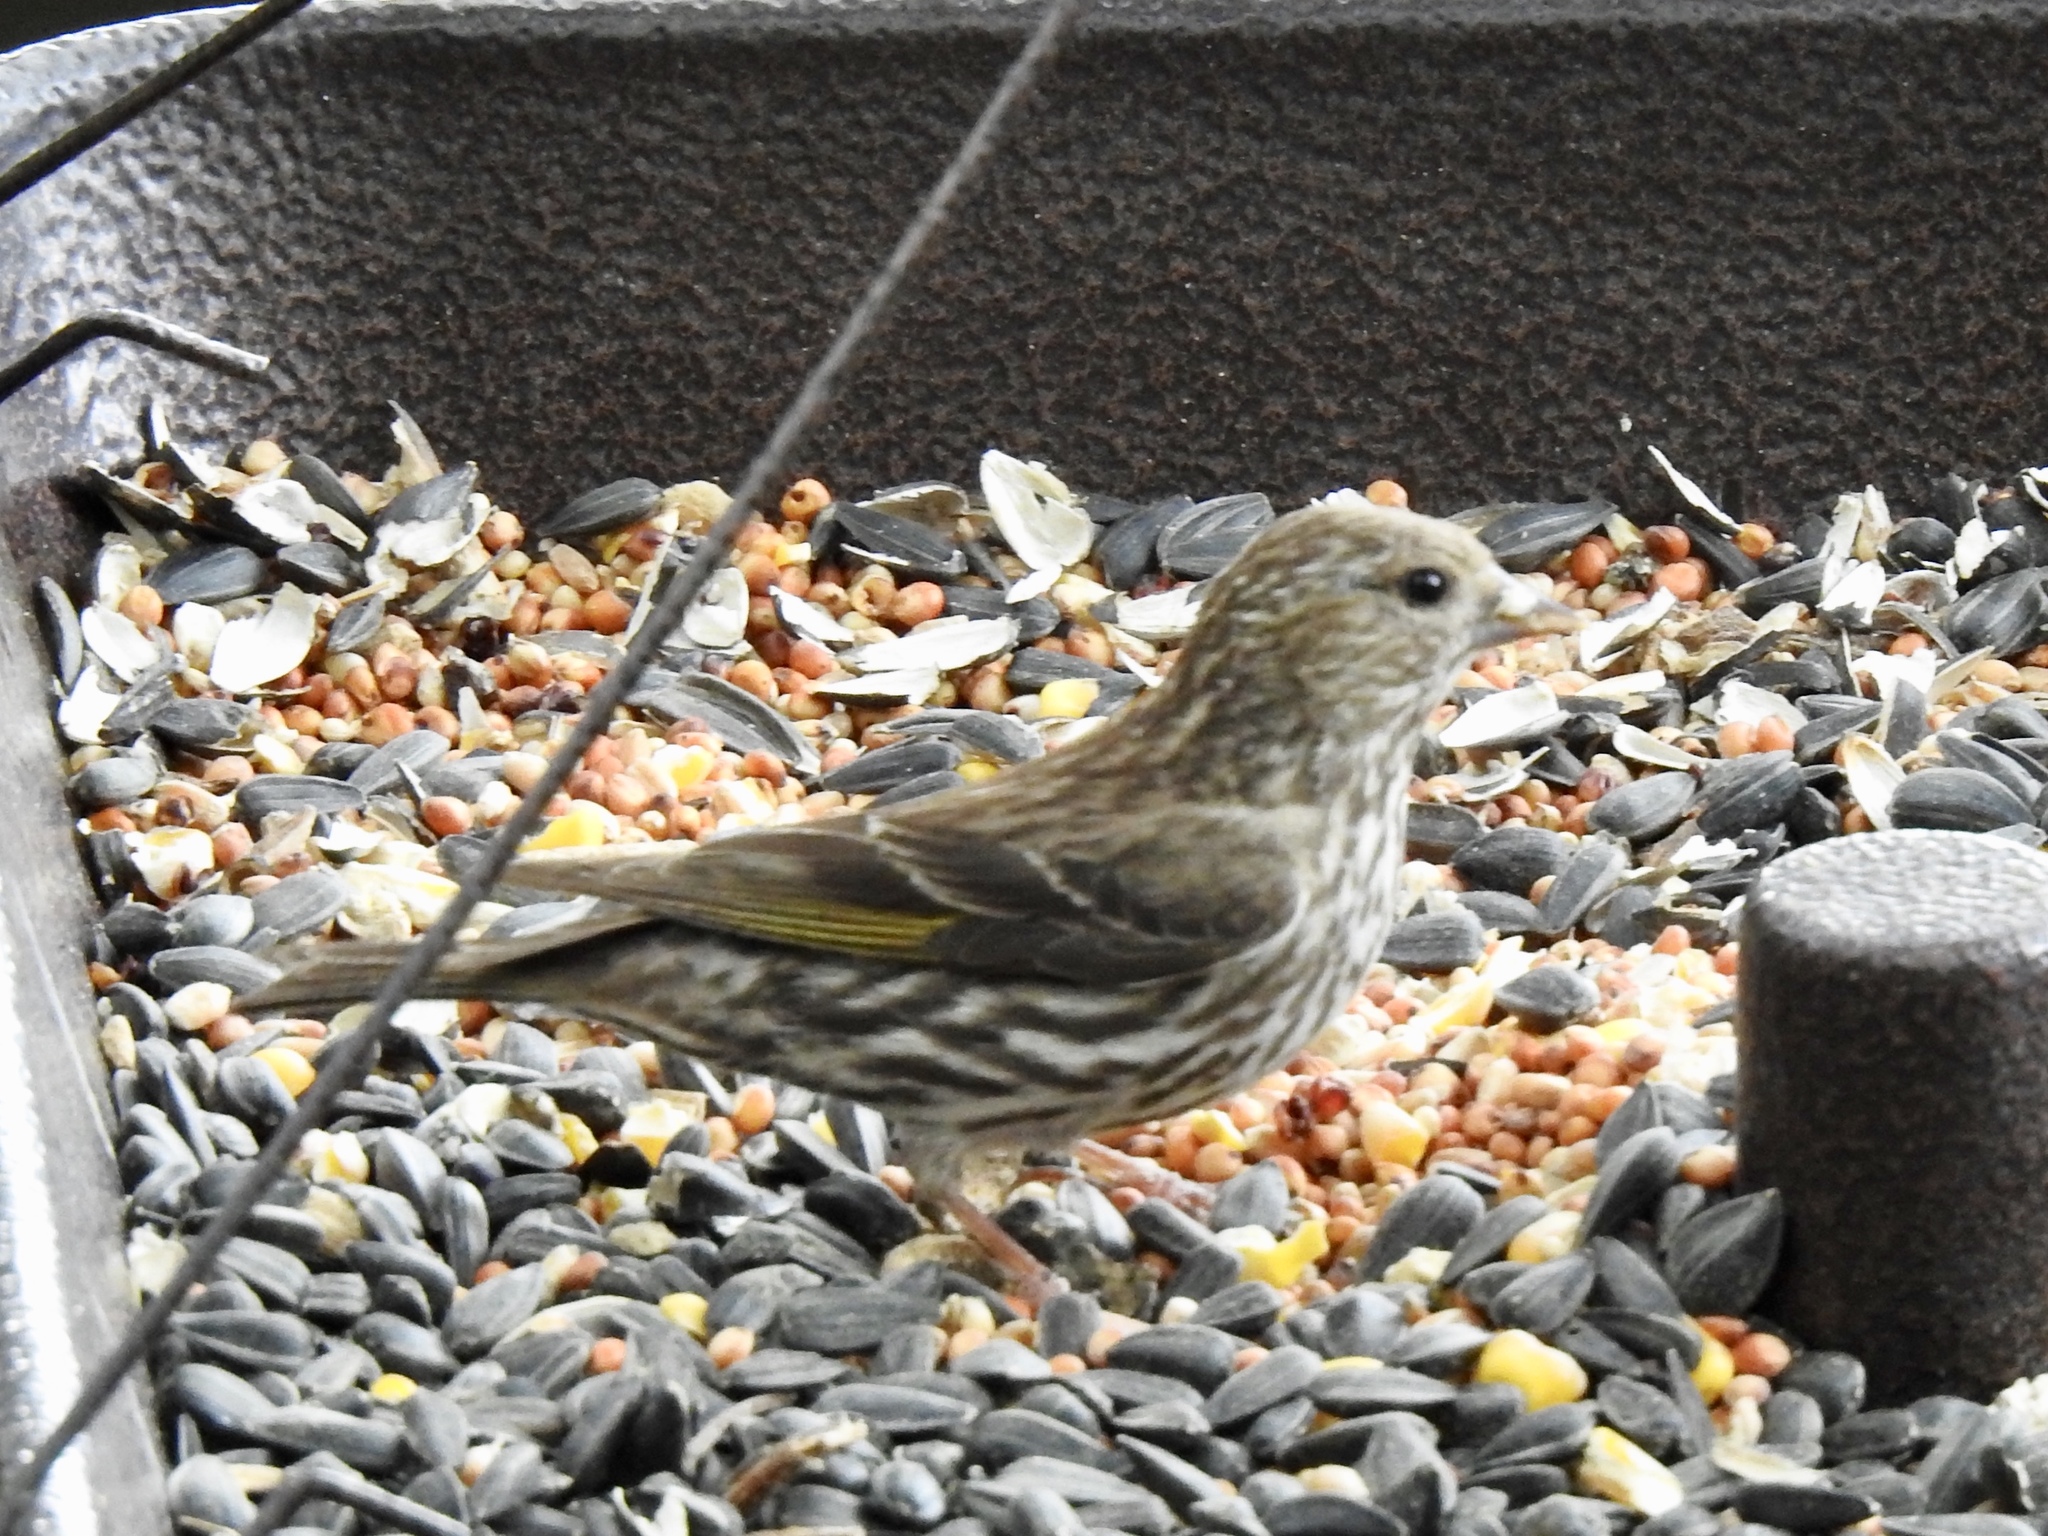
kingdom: Animalia
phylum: Chordata
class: Aves
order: Passeriformes
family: Fringillidae
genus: Spinus
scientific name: Spinus pinus
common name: Pine siskin
